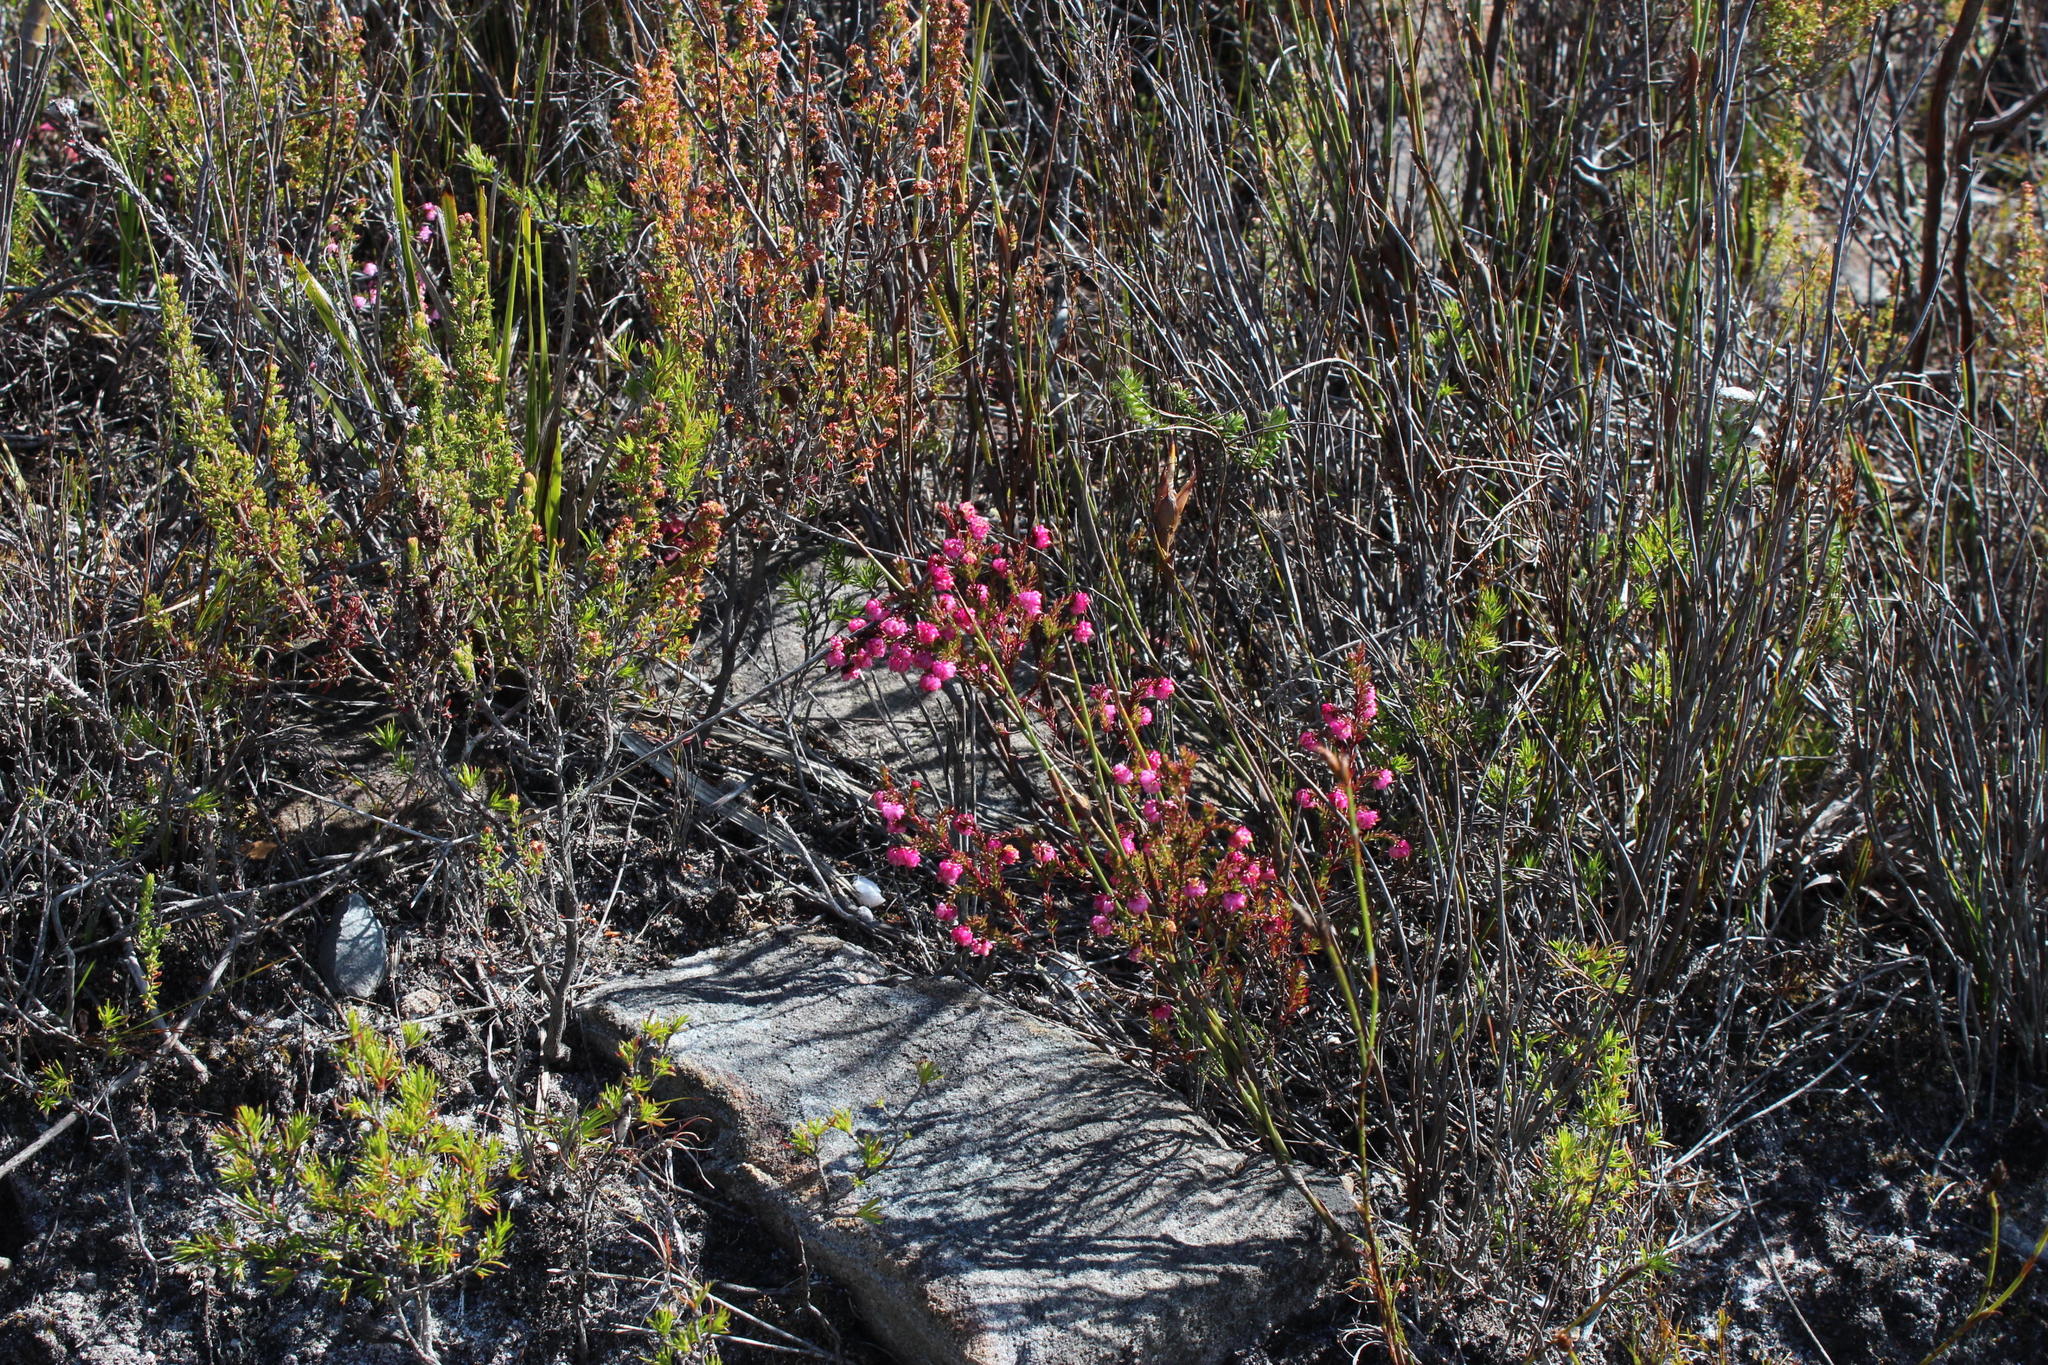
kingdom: Plantae
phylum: Tracheophyta
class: Magnoliopsida
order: Ericales
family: Ericaceae
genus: Erica
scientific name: Erica spumosa
